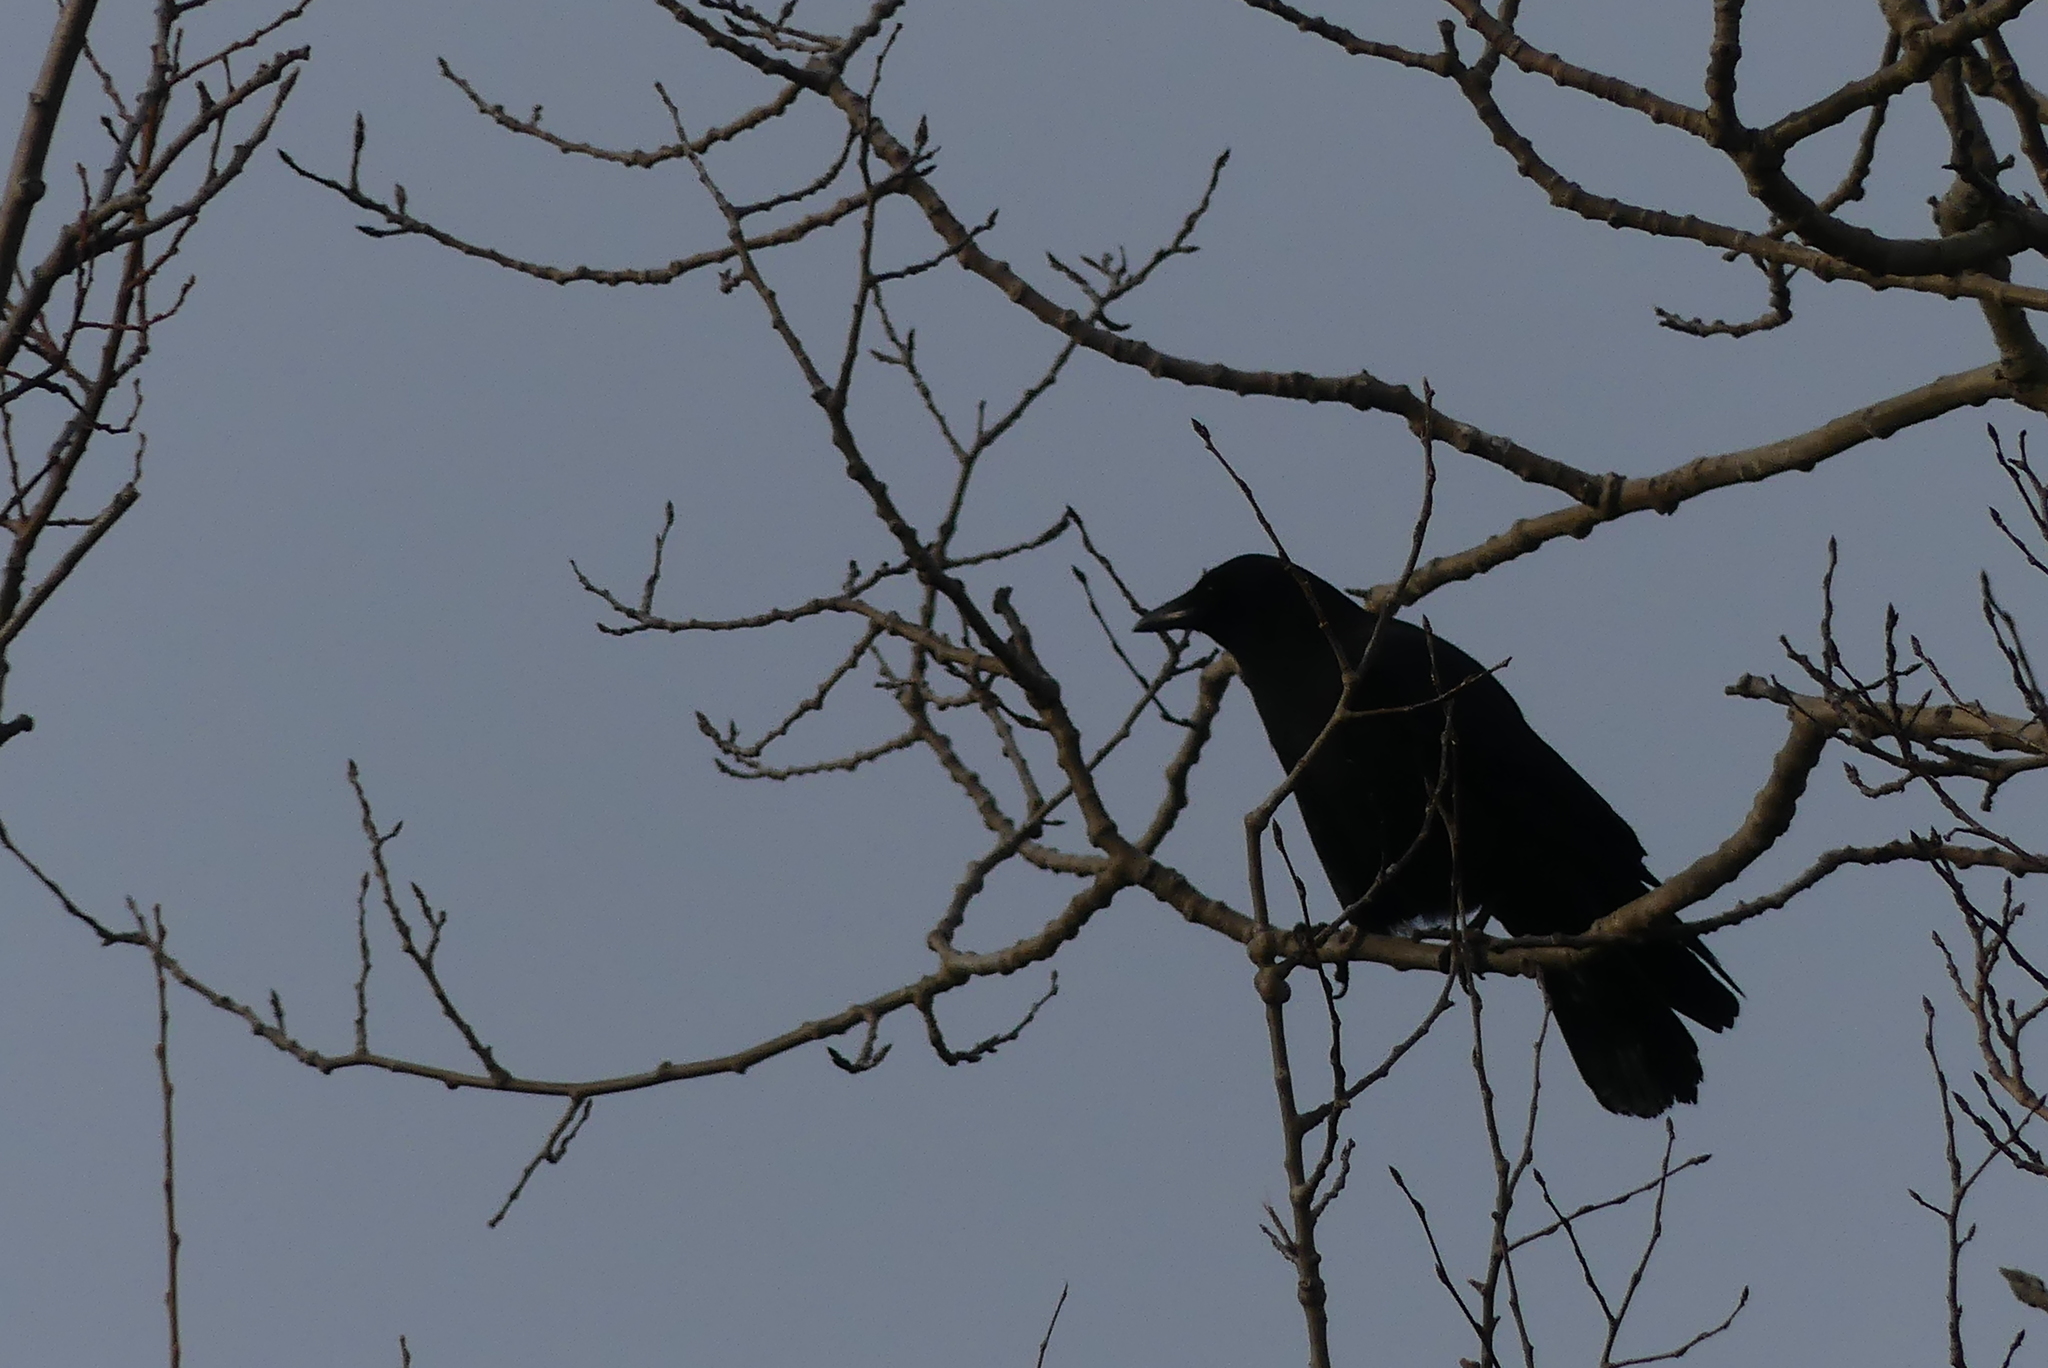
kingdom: Animalia
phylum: Chordata
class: Aves
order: Passeriformes
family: Corvidae
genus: Corvus
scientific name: Corvus brachyrhynchos
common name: American crow
